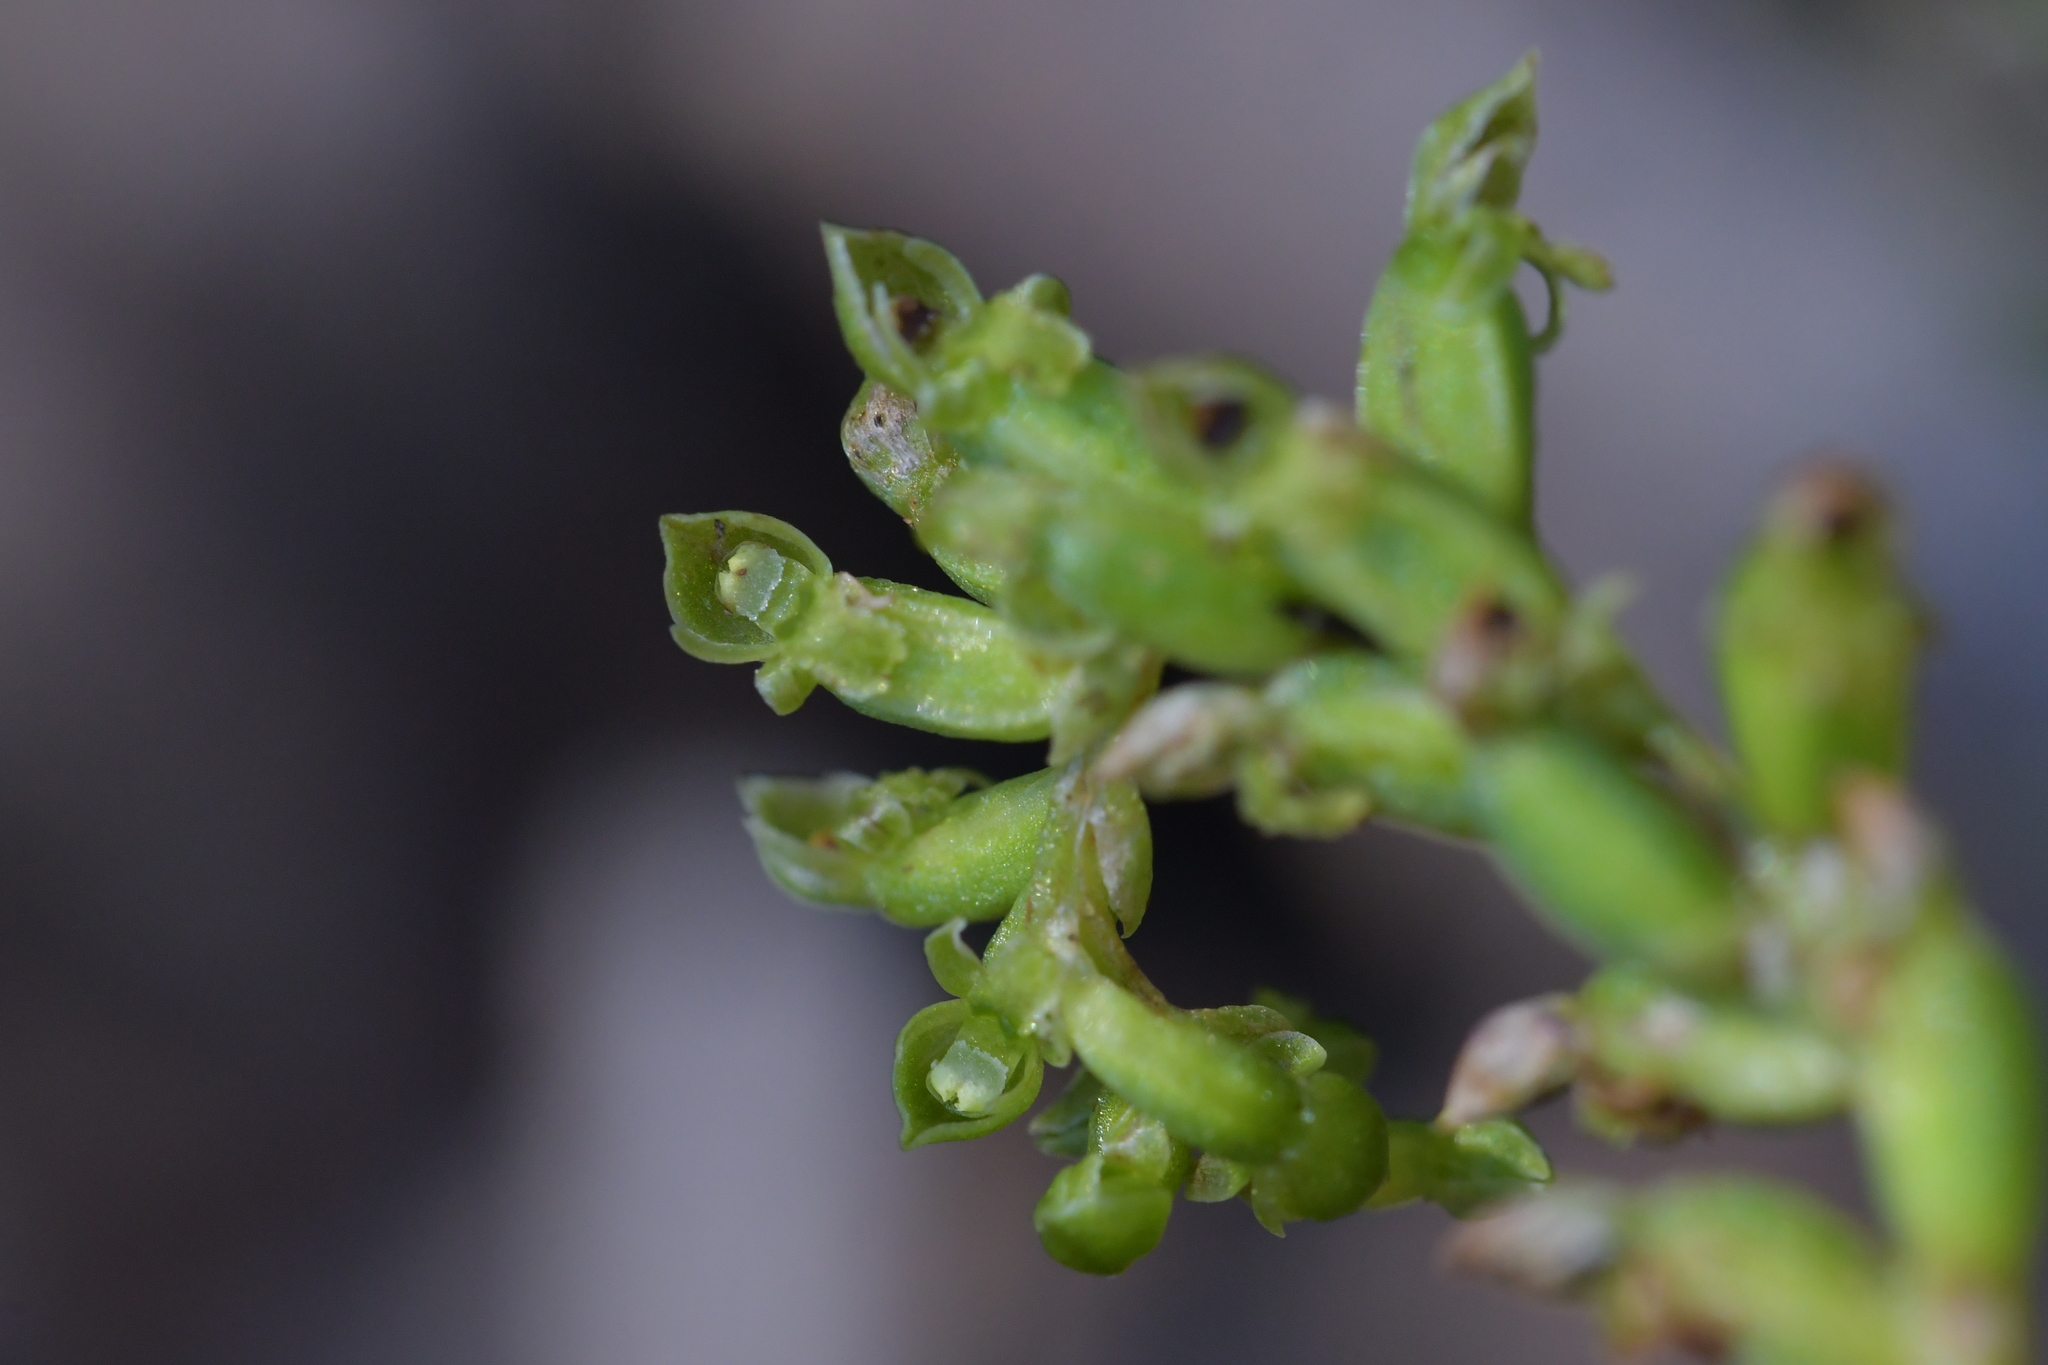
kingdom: Plantae
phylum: Tracheophyta
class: Liliopsida
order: Asparagales
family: Orchidaceae
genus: Microtis
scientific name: Microtis unifolia
